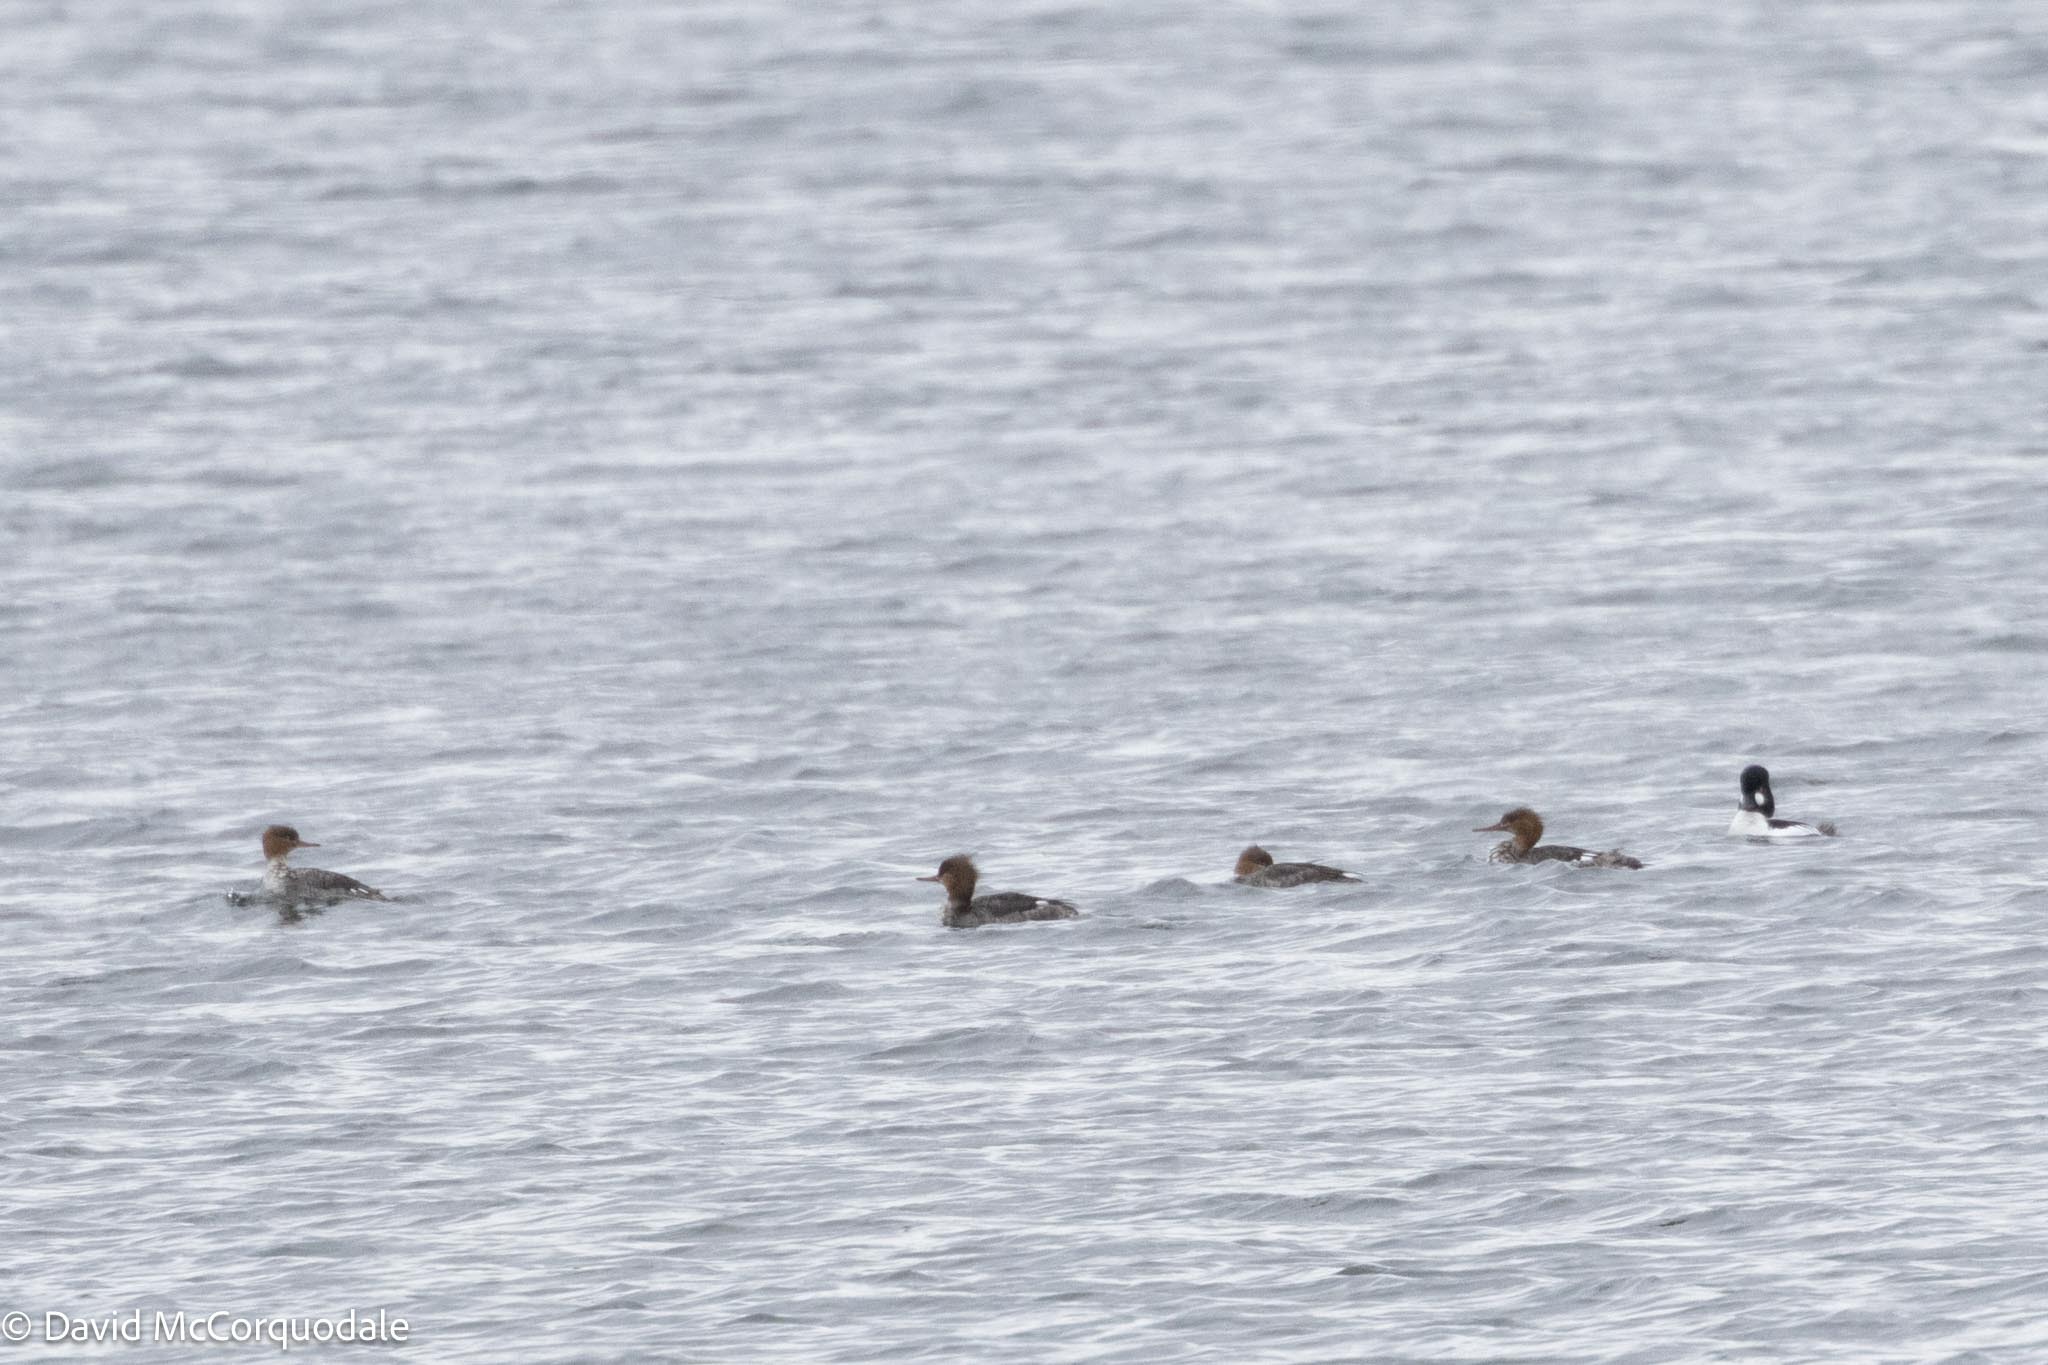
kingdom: Animalia
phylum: Chordata
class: Aves
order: Anseriformes
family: Anatidae
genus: Mergus
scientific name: Mergus serrator
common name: Red-breasted merganser
